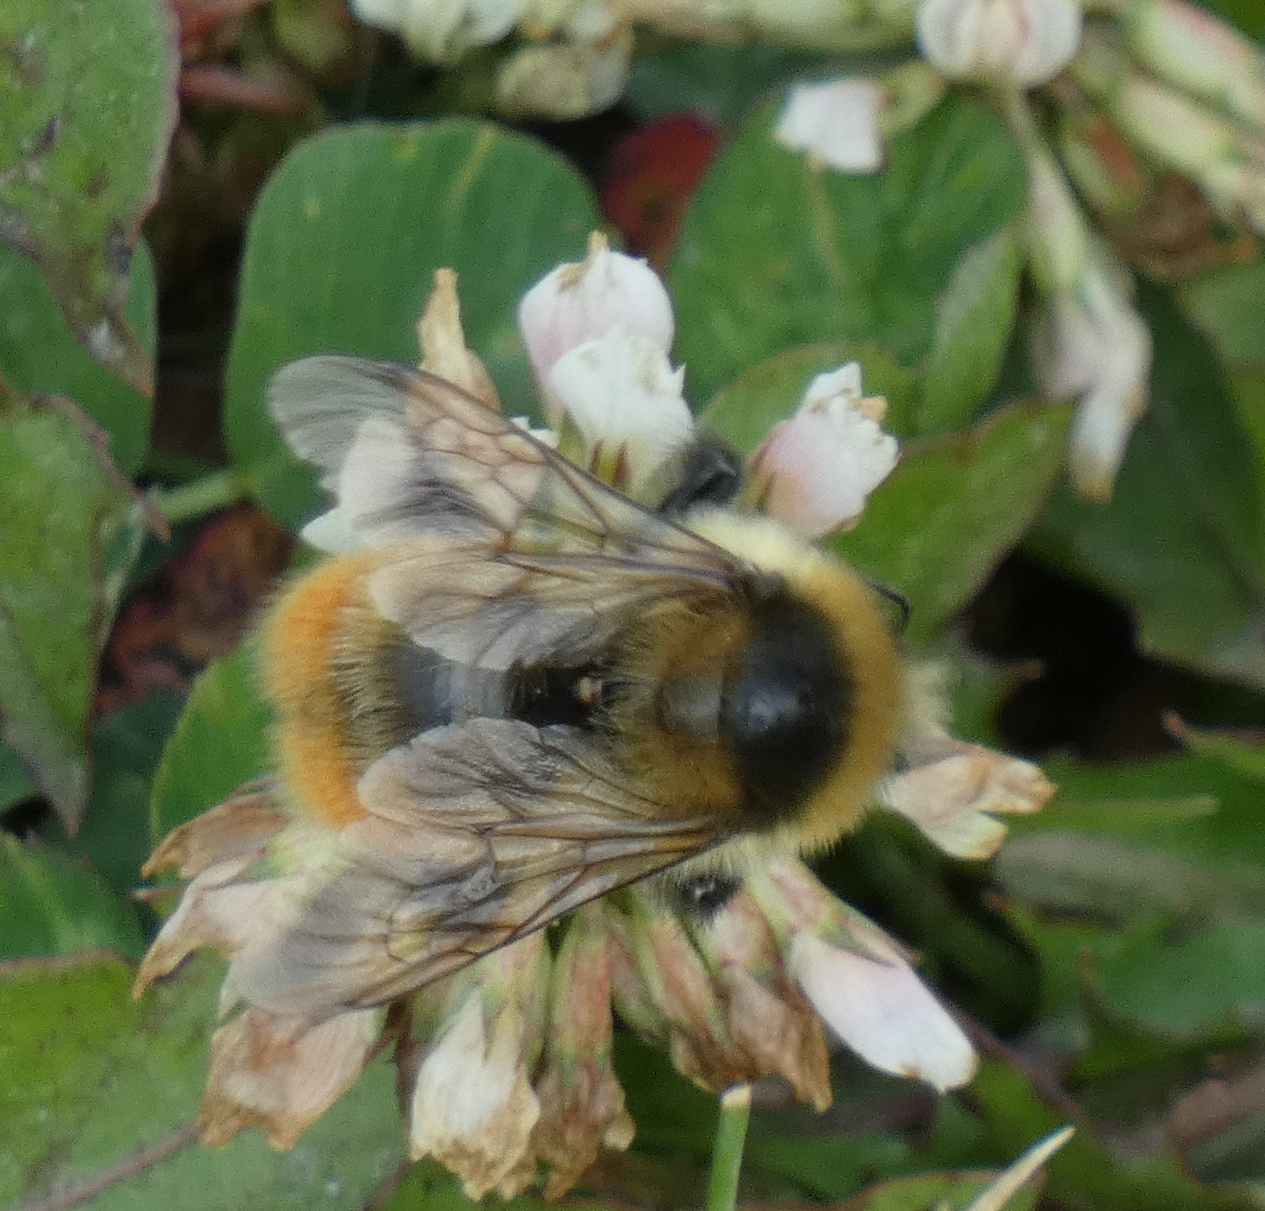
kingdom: Animalia
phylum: Arthropoda
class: Insecta
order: Hymenoptera
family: Apidae
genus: Bombus
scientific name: Bombus rufocinctus
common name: Red-belted bumble bee
